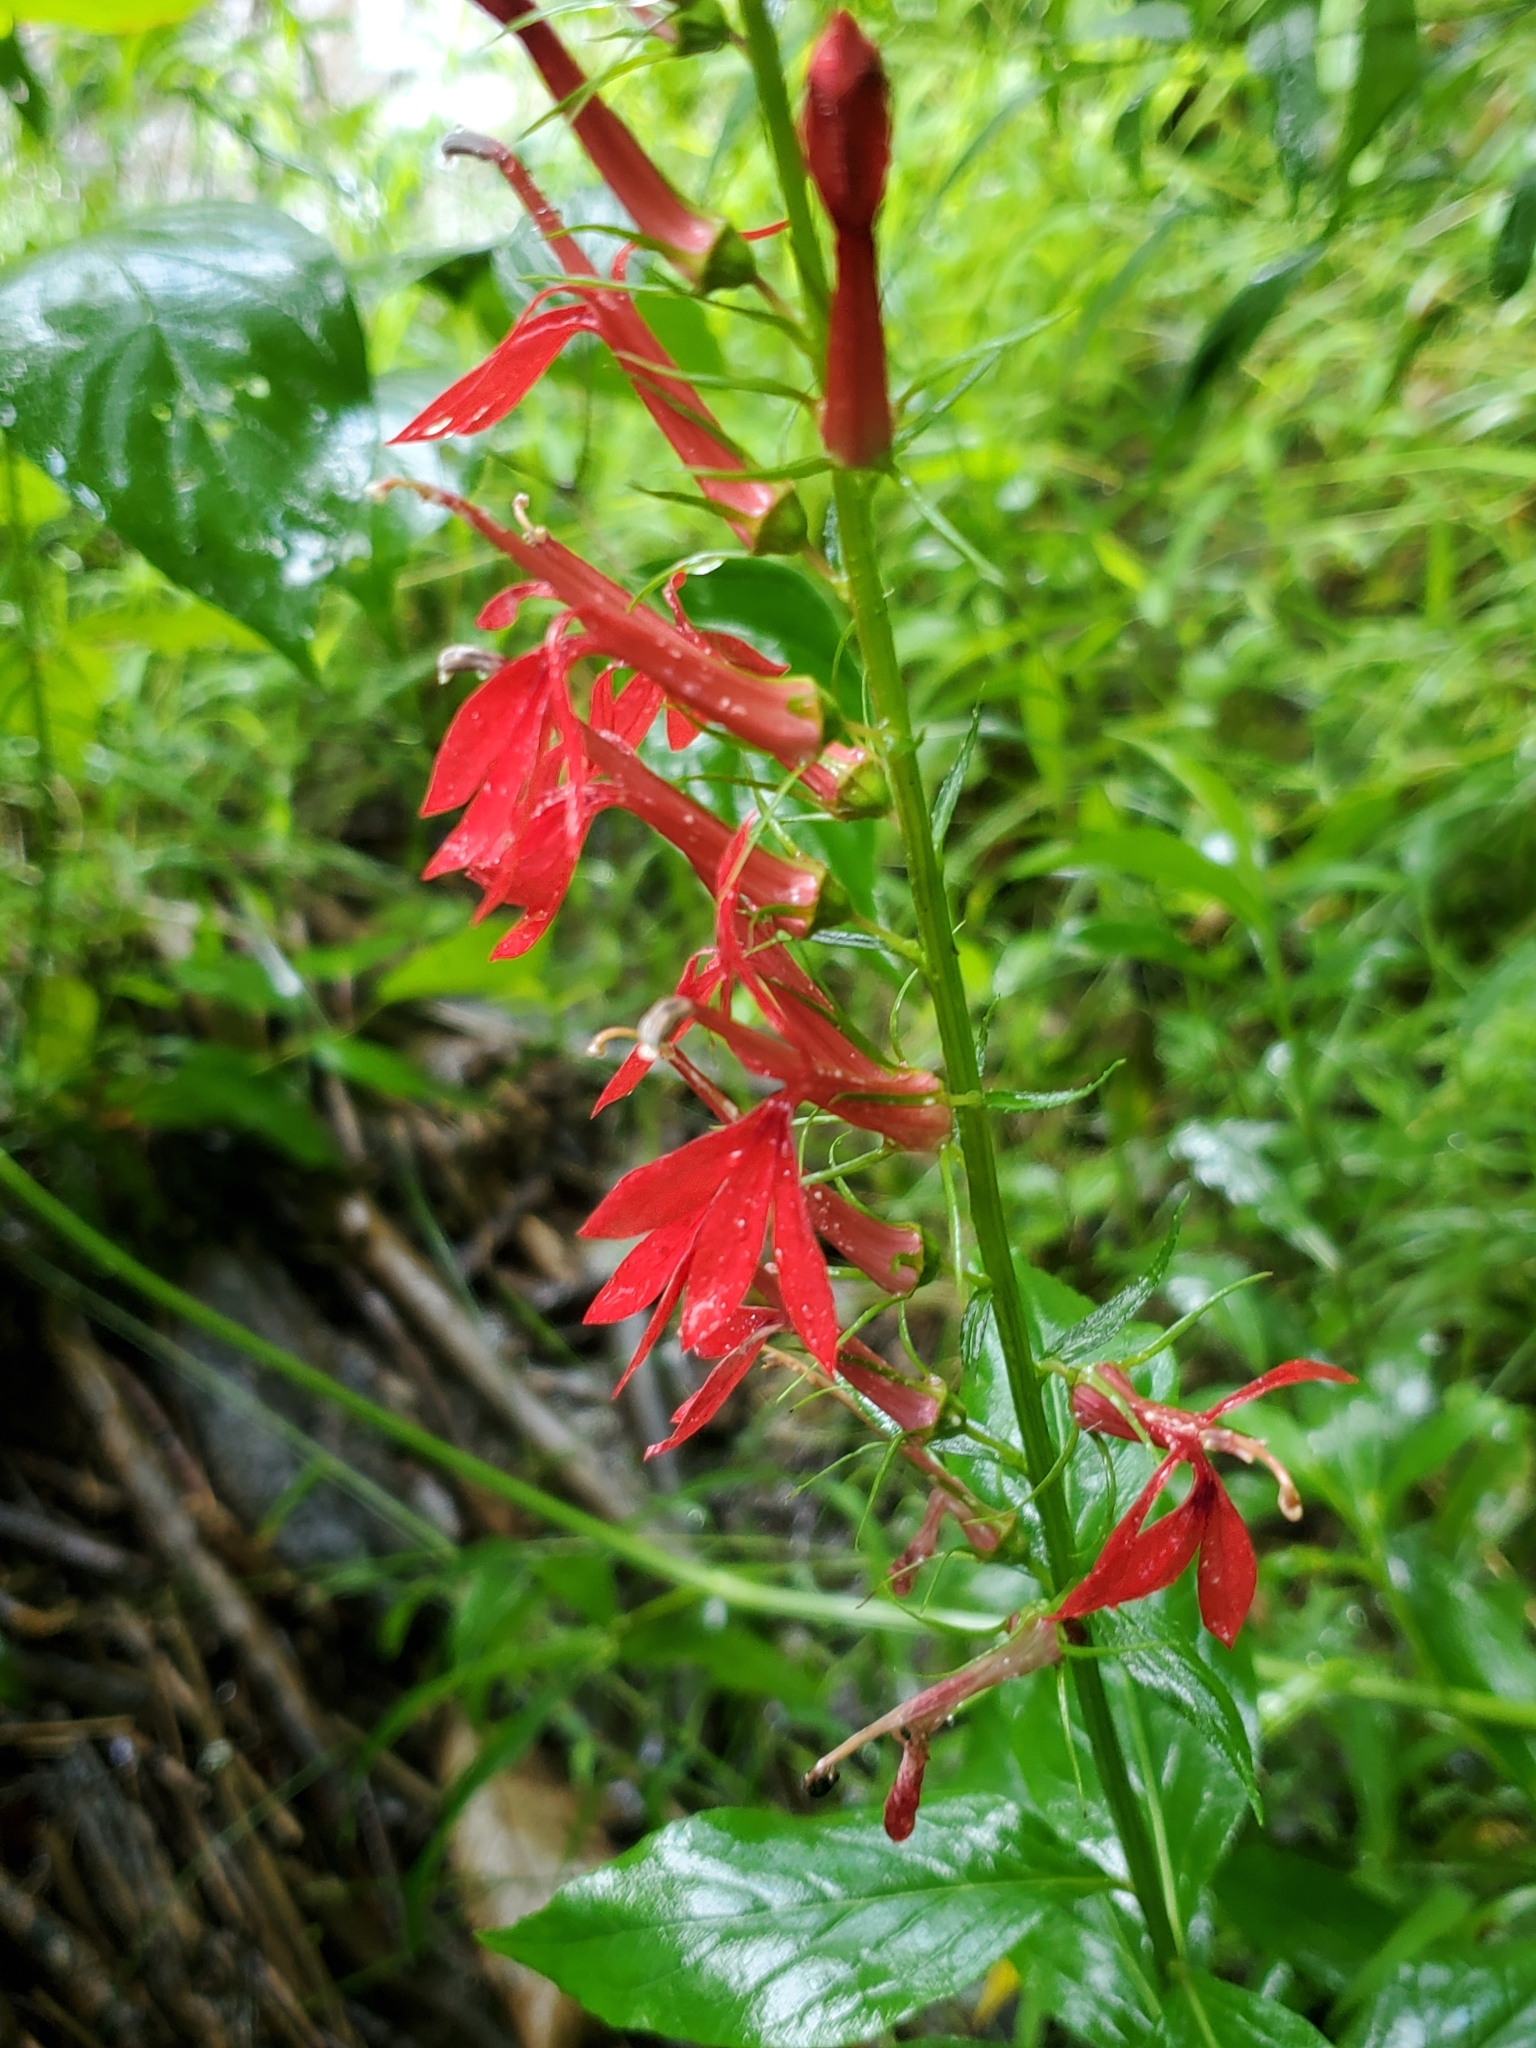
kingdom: Plantae
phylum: Tracheophyta
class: Magnoliopsida
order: Asterales
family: Campanulaceae
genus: Lobelia
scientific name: Lobelia cardinalis
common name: Cardinal flower
